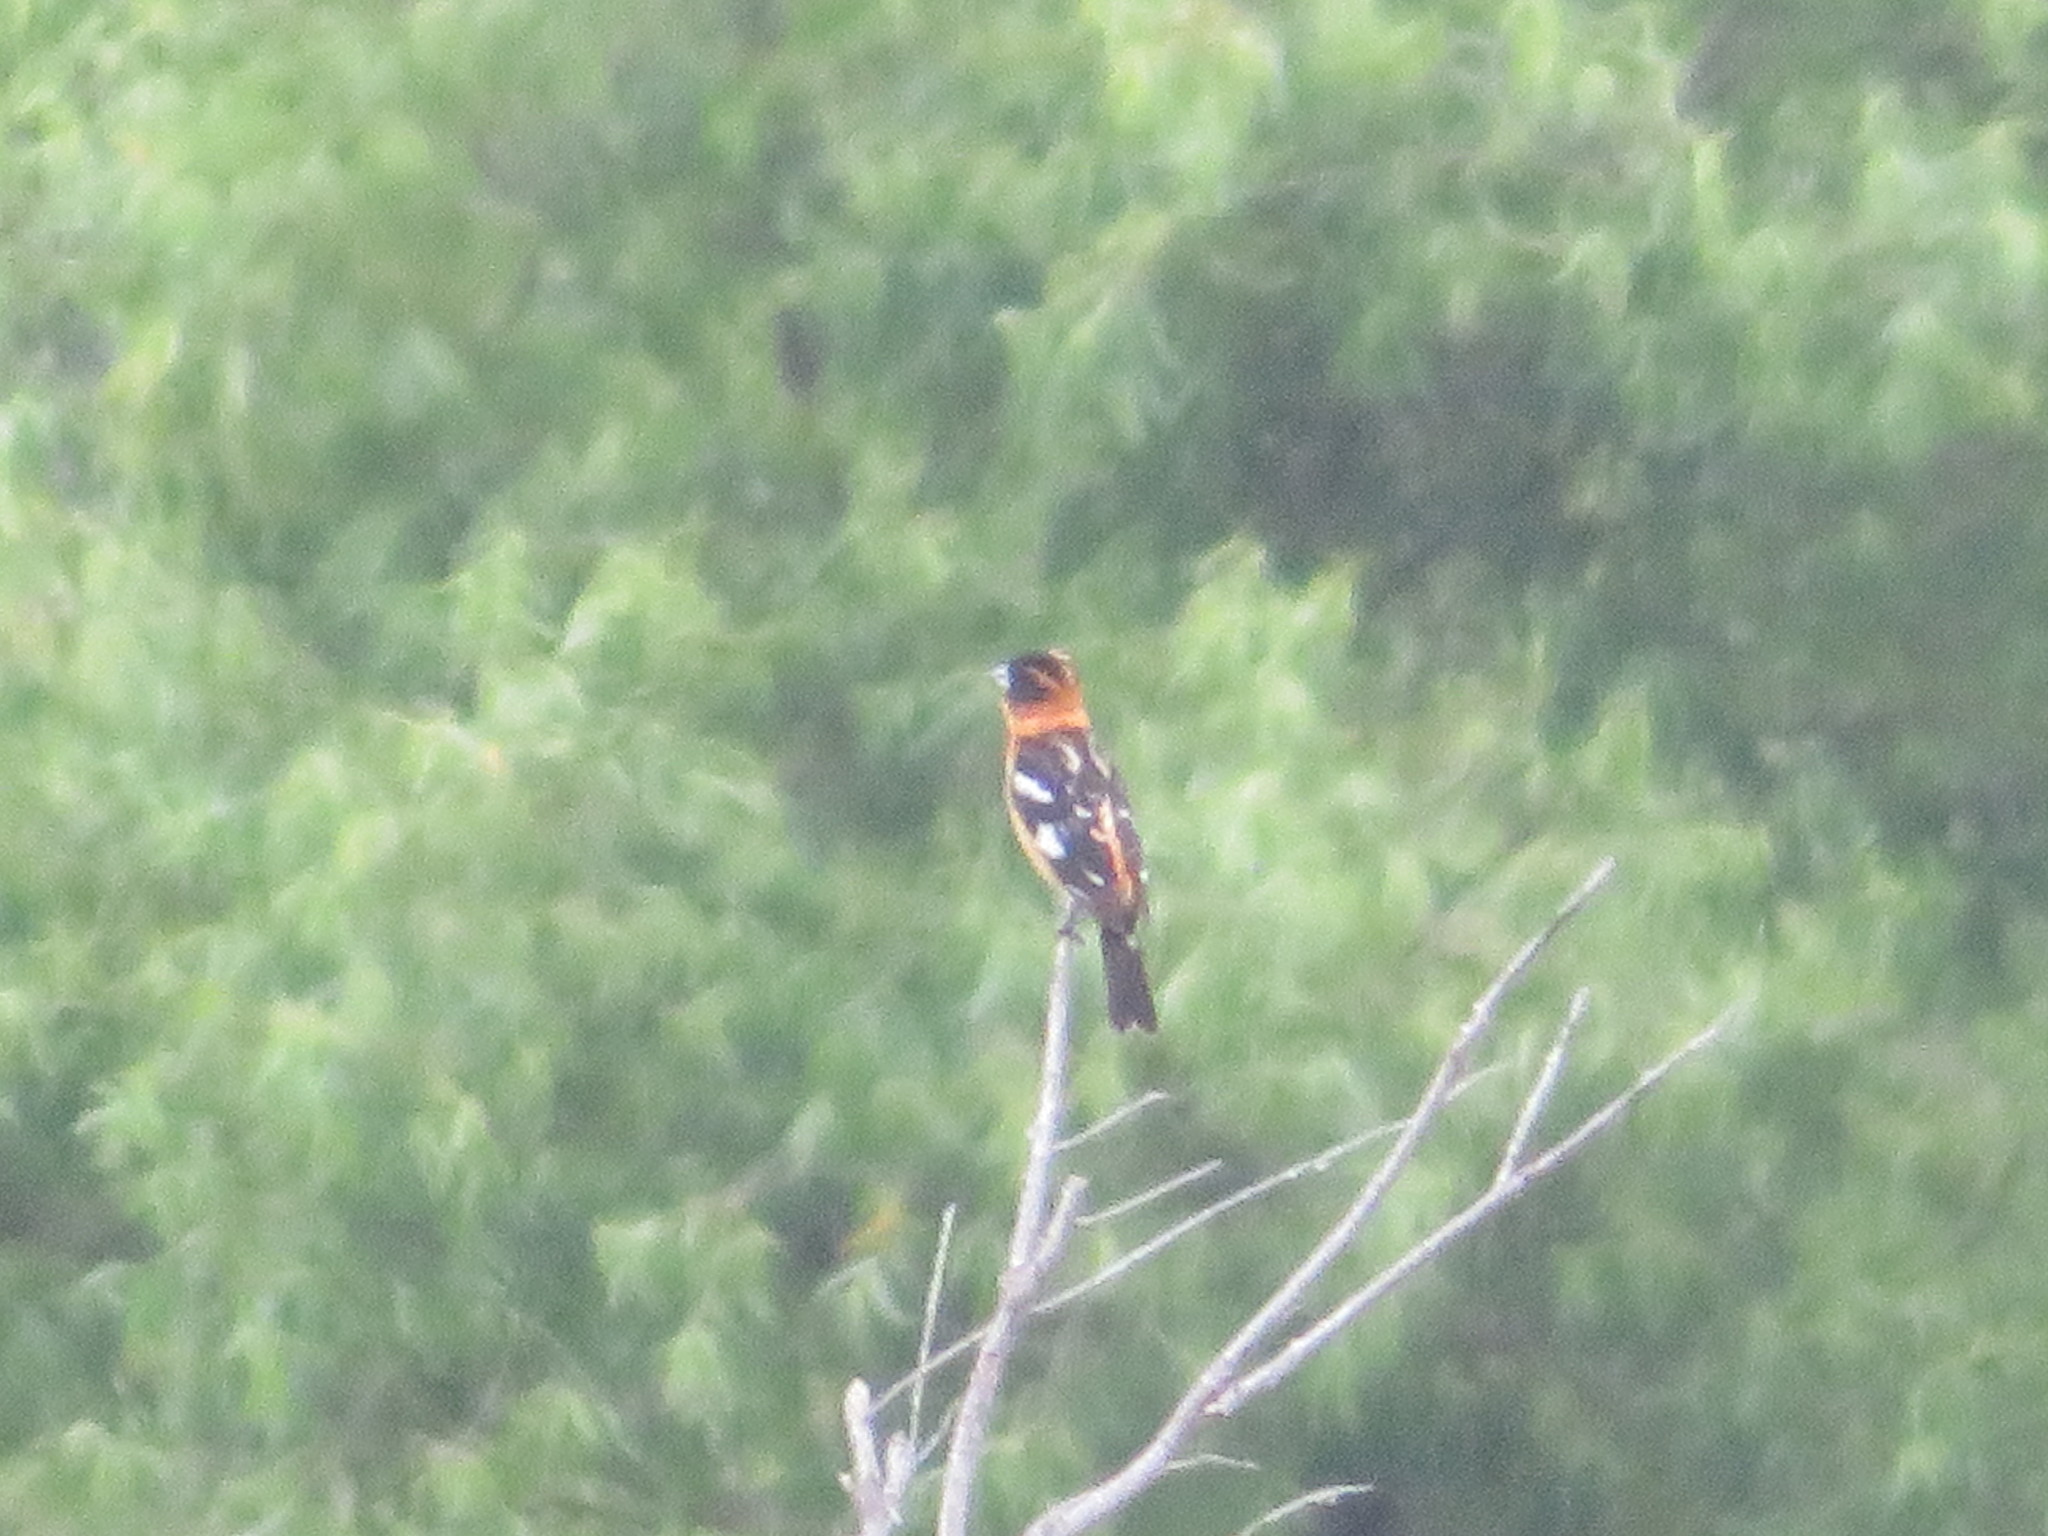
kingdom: Animalia
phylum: Chordata
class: Aves
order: Passeriformes
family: Cardinalidae
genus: Pheucticus
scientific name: Pheucticus melanocephalus
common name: Black-headed grosbeak
